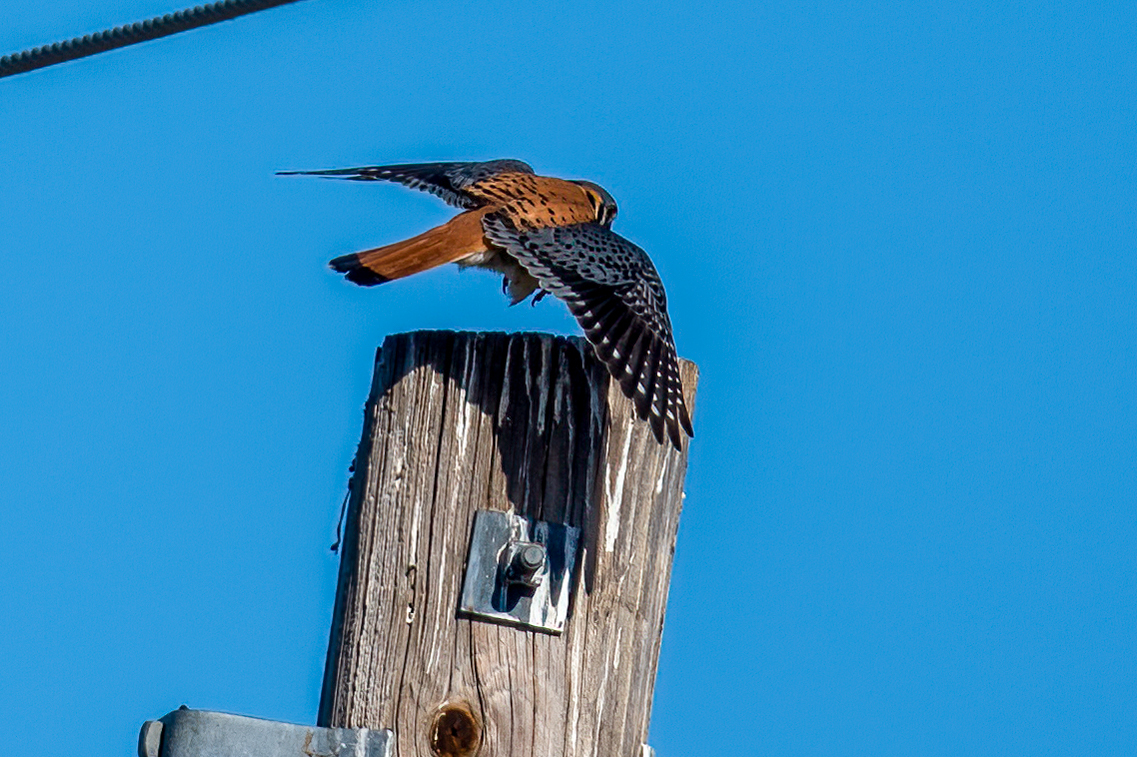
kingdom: Animalia
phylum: Chordata
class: Aves
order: Falconiformes
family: Falconidae
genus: Falco
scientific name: Falco sparverius
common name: American kestrel
